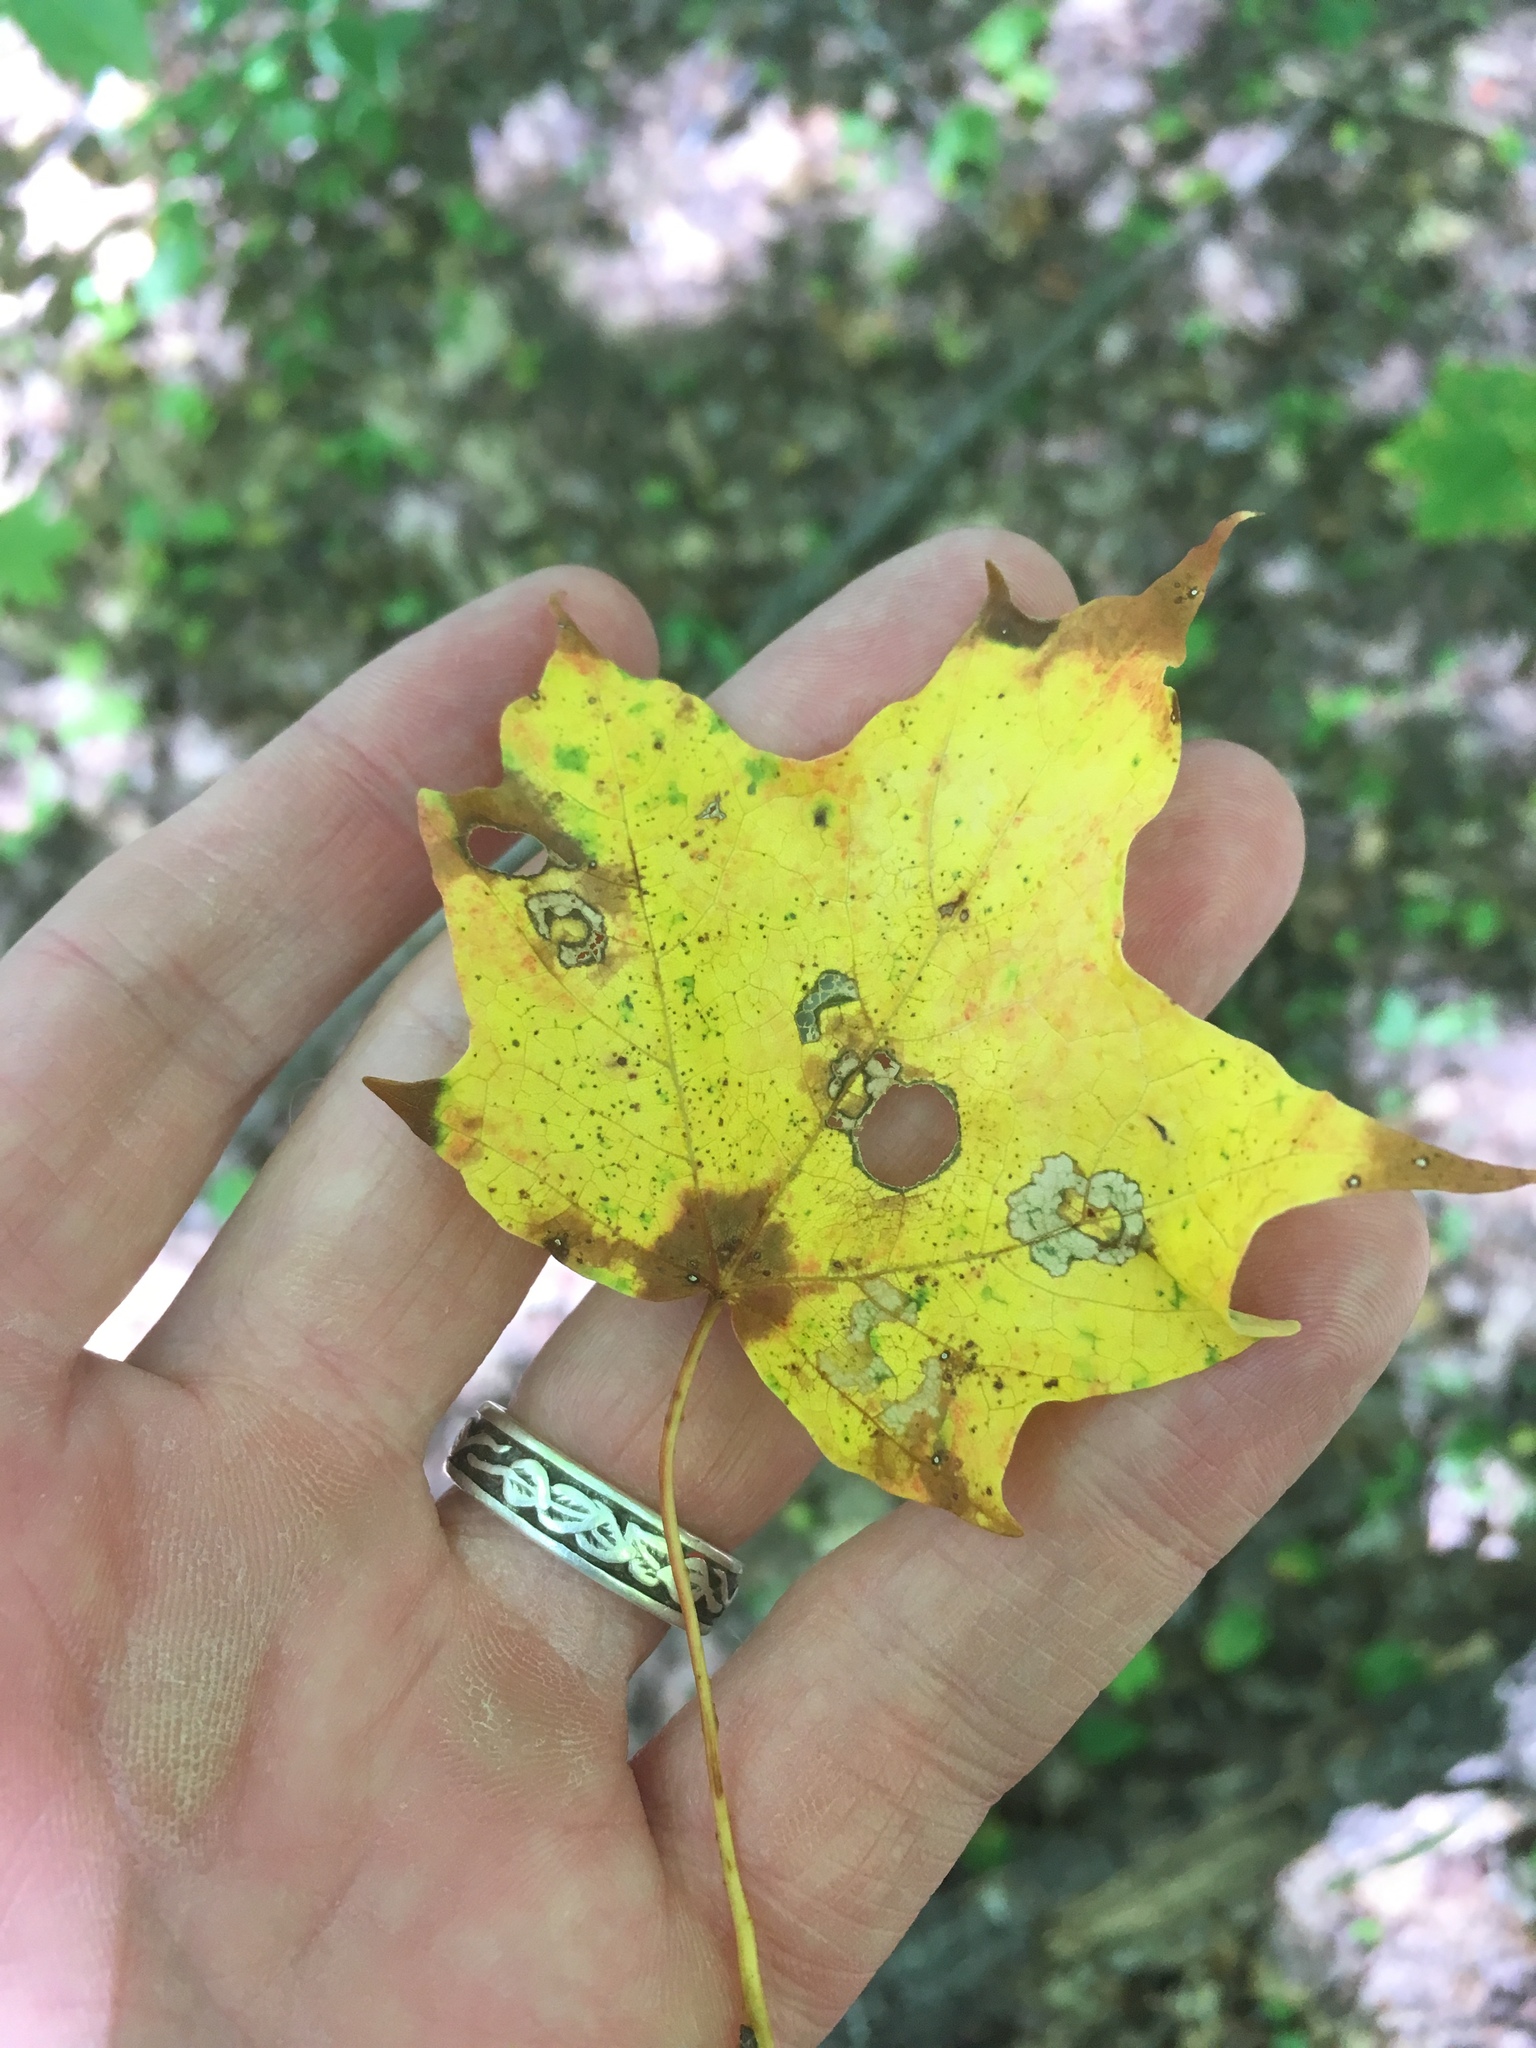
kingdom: Plantae
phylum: Tracheophyta
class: Magnoliopsida
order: Sapindales
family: Sapindaceae
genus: Acer
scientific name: Acer saccharum
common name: Sugar maple
